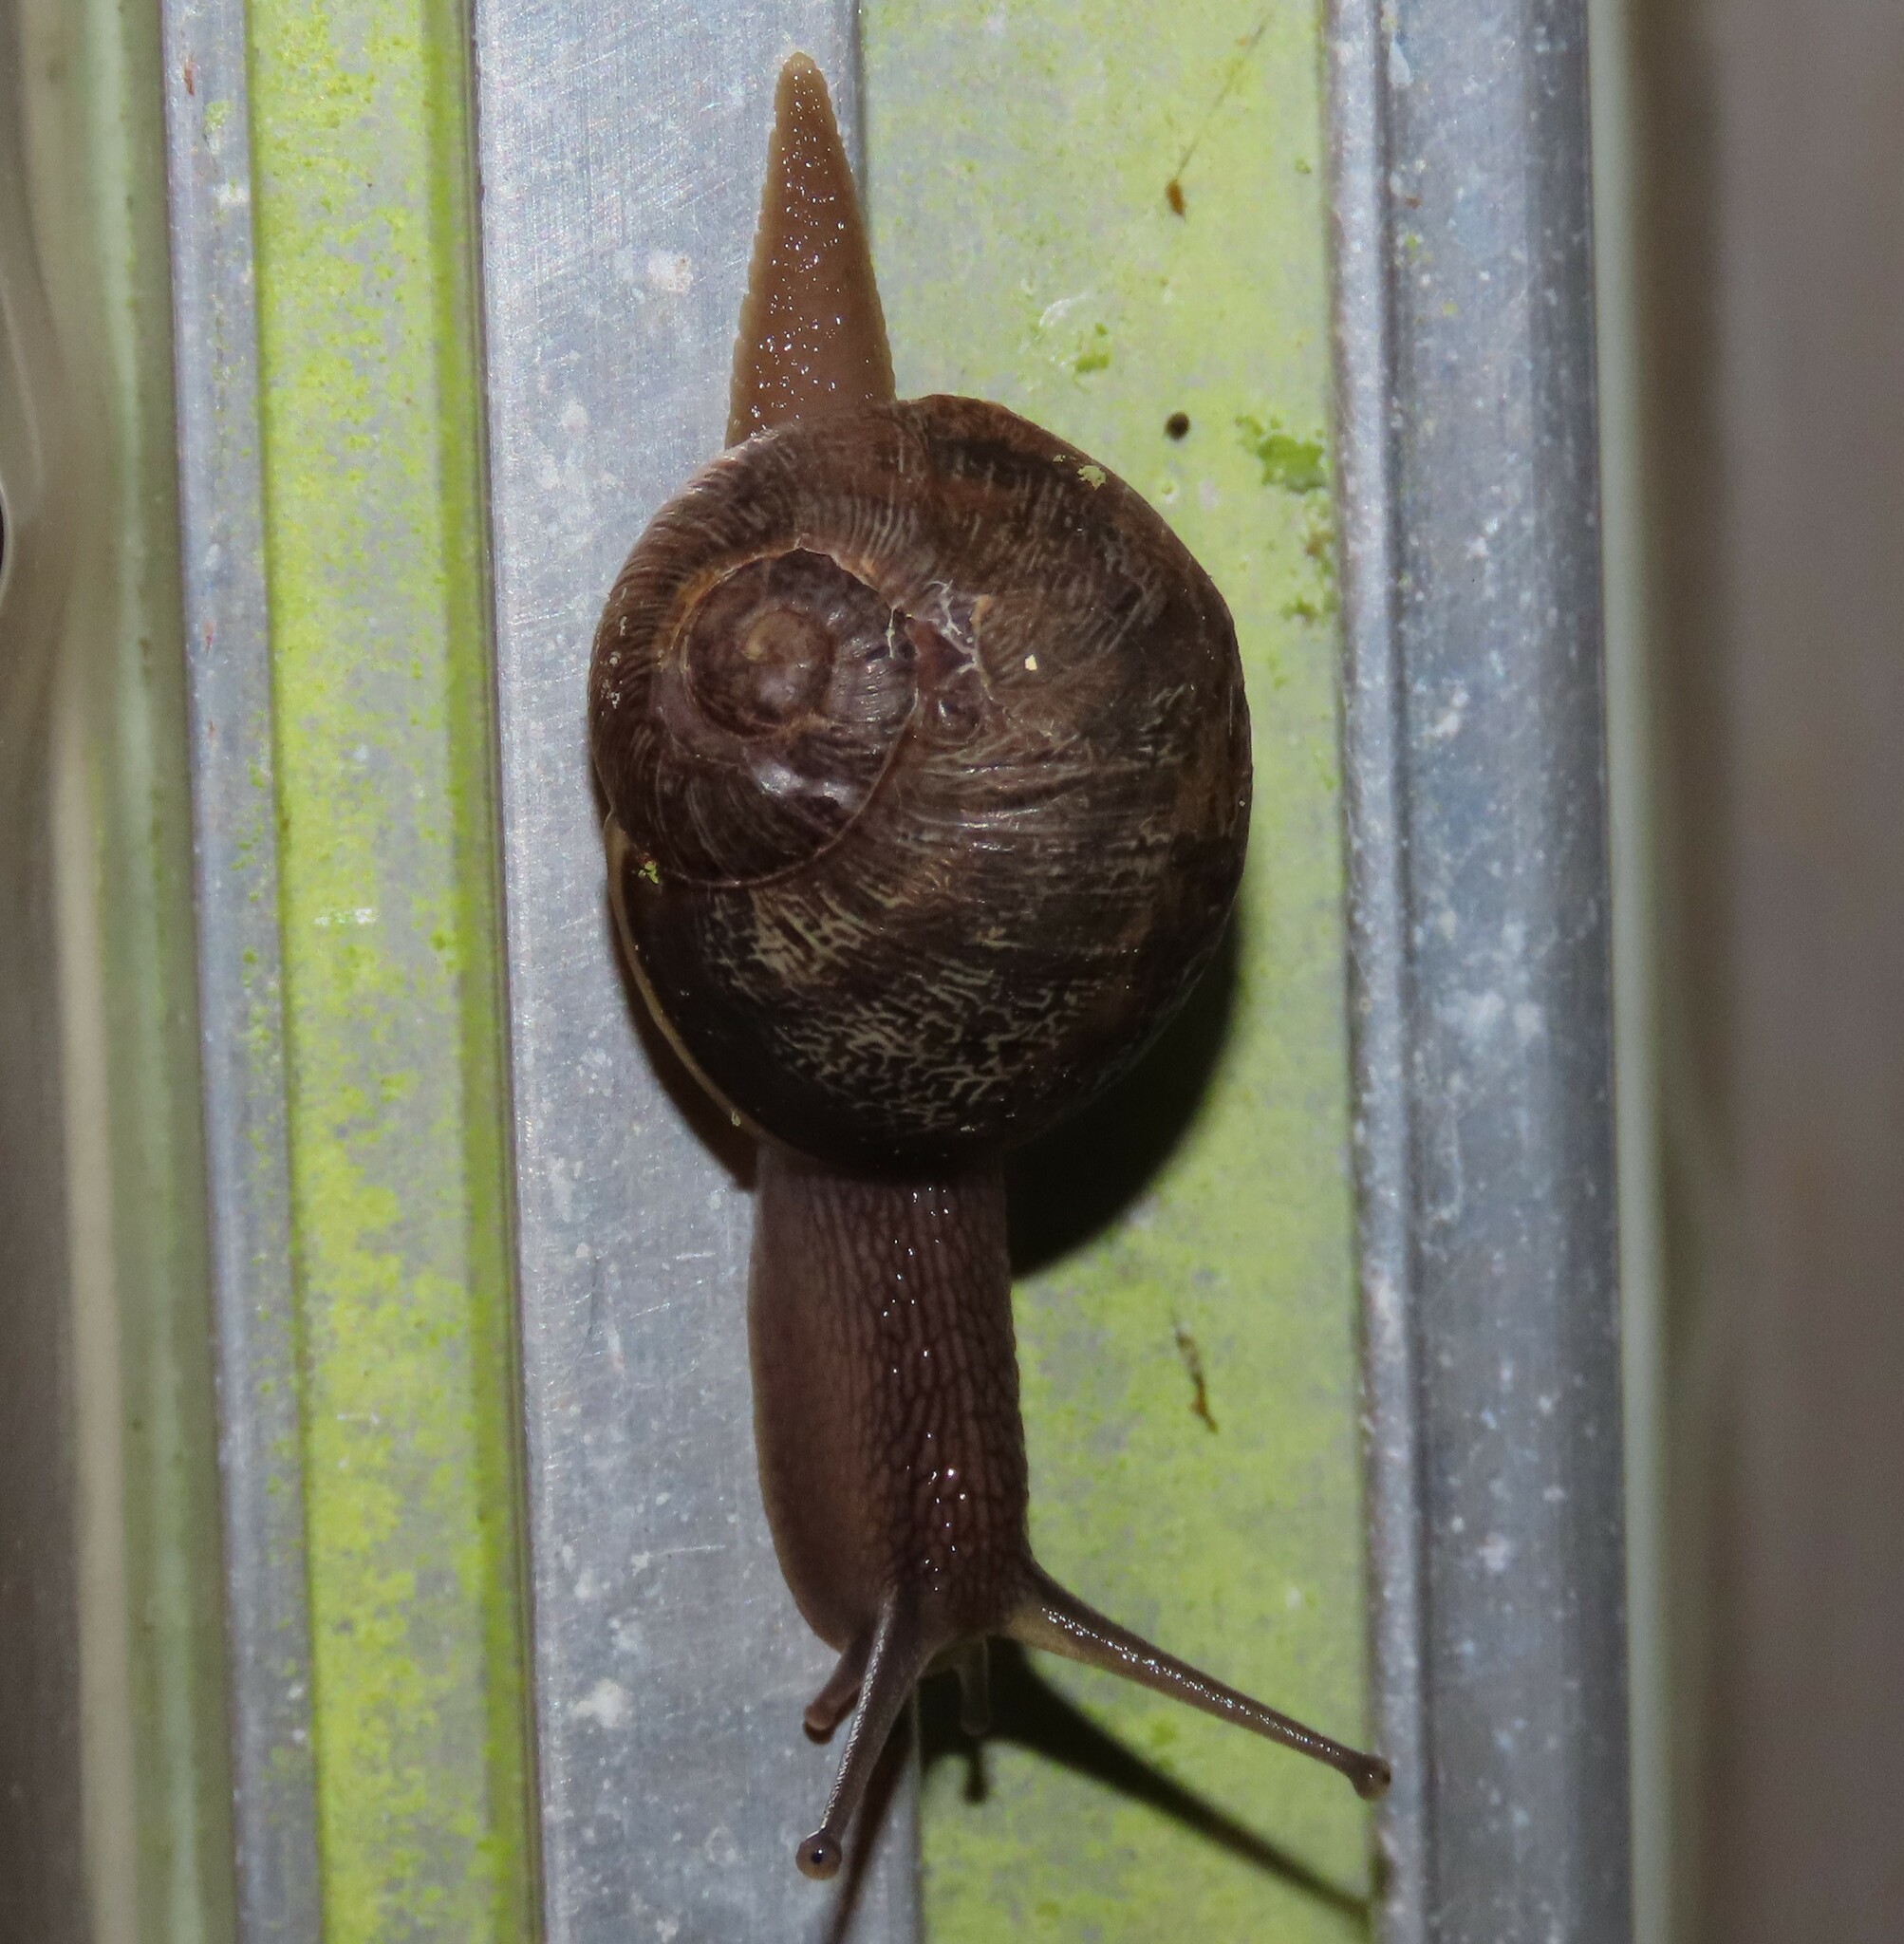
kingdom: Animalia
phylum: Mollusca
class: Gastropoda
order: Stylommatophora
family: Helicidae
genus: Cornu
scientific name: Cornu aspersum
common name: Brown garden snail
